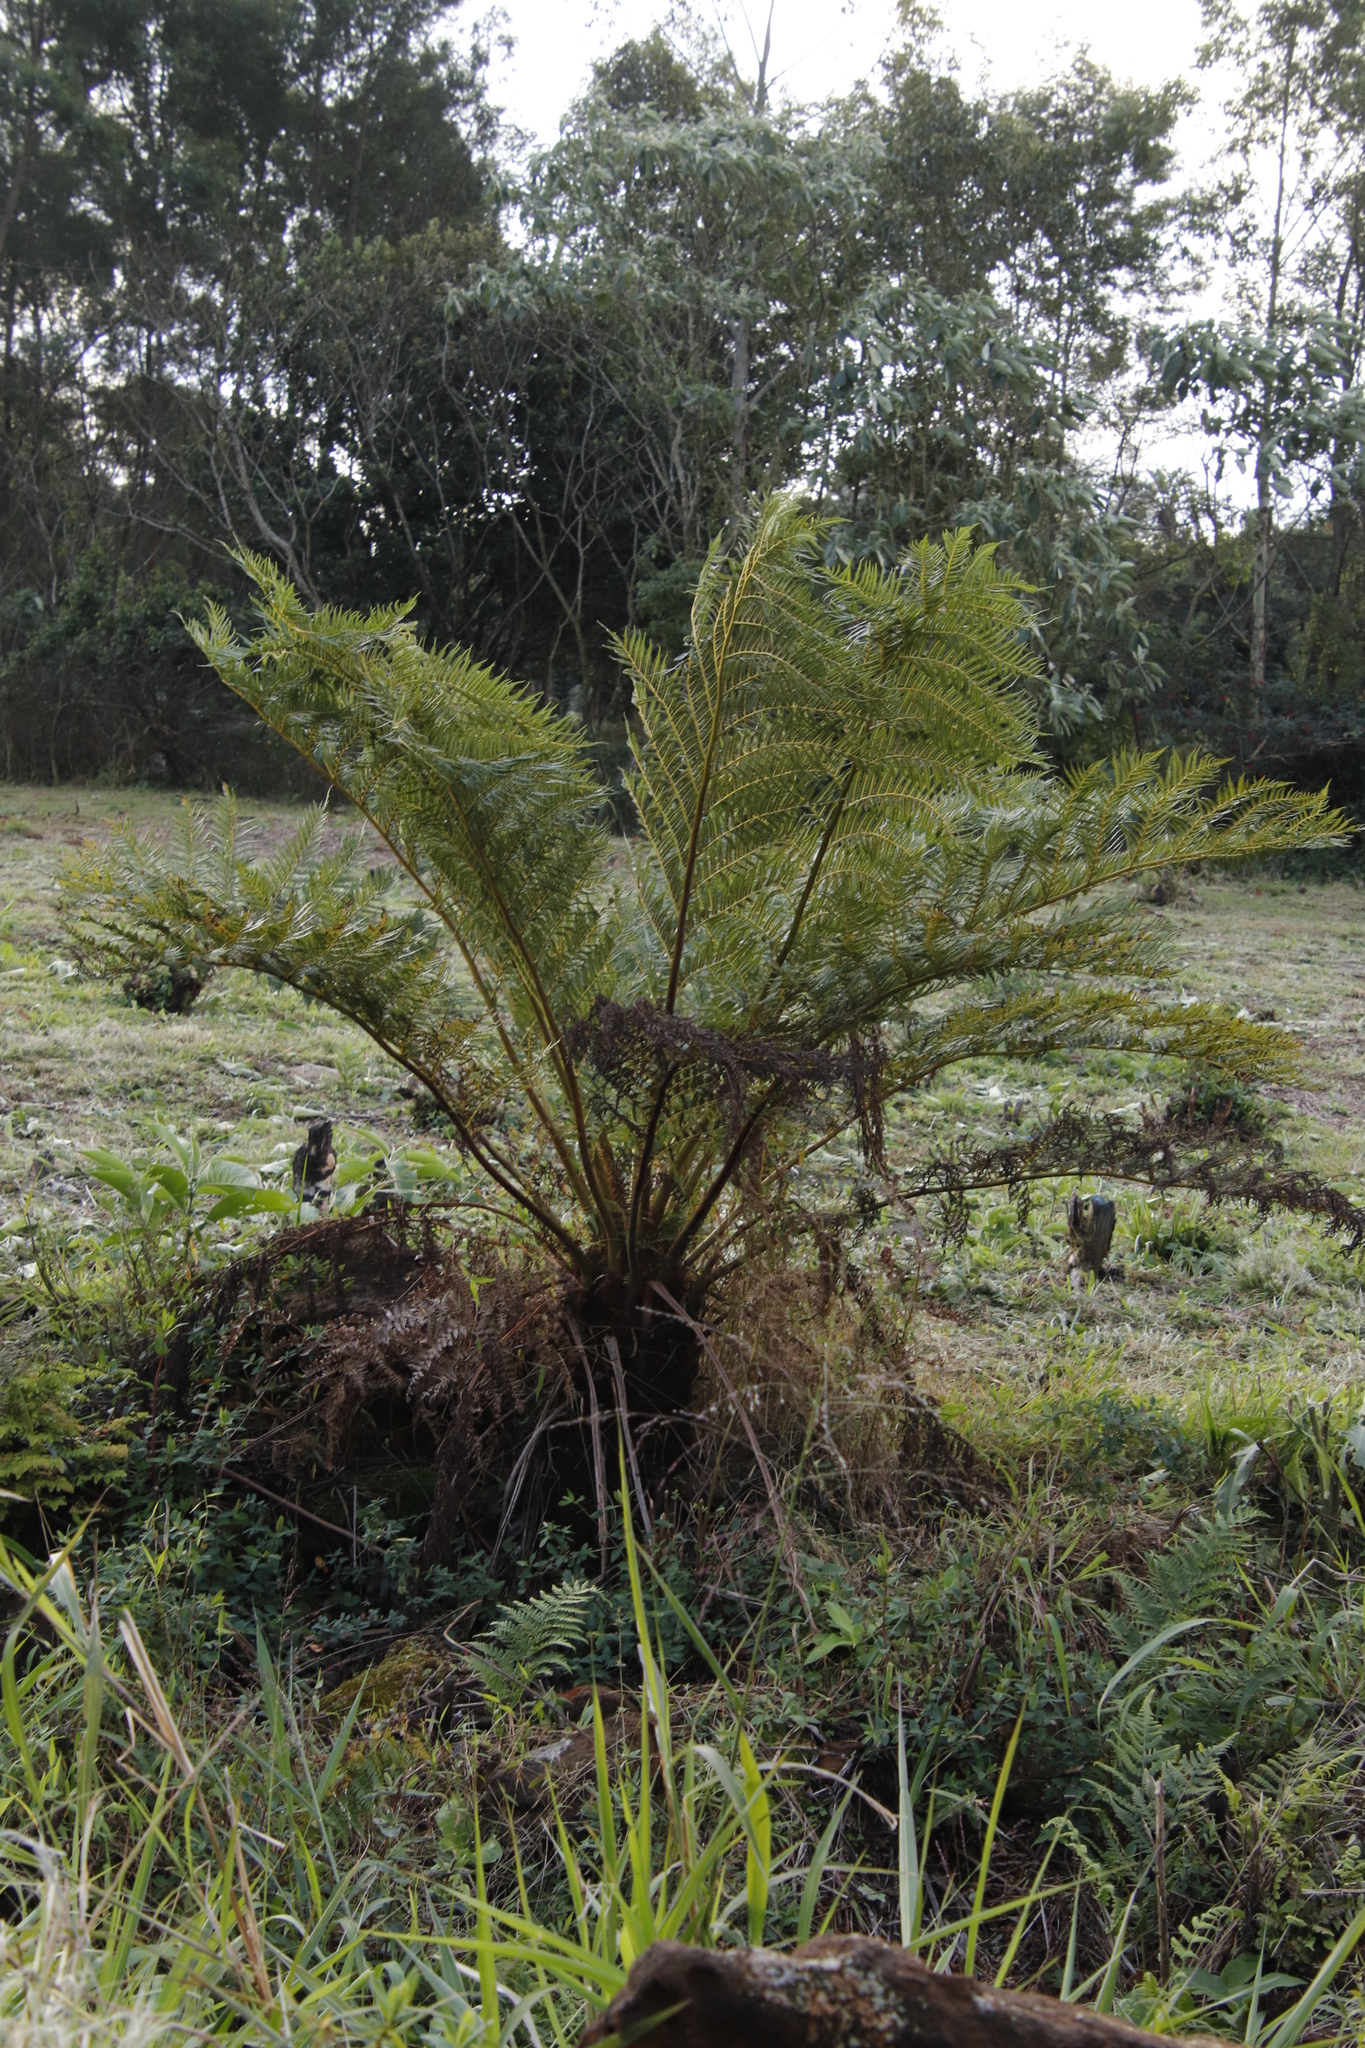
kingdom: Plantae
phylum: Tracheophyta
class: Polypodiopsida
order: Cyatheales
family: Cyatheaceae
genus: Alsophila
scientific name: Alsophila dregei
